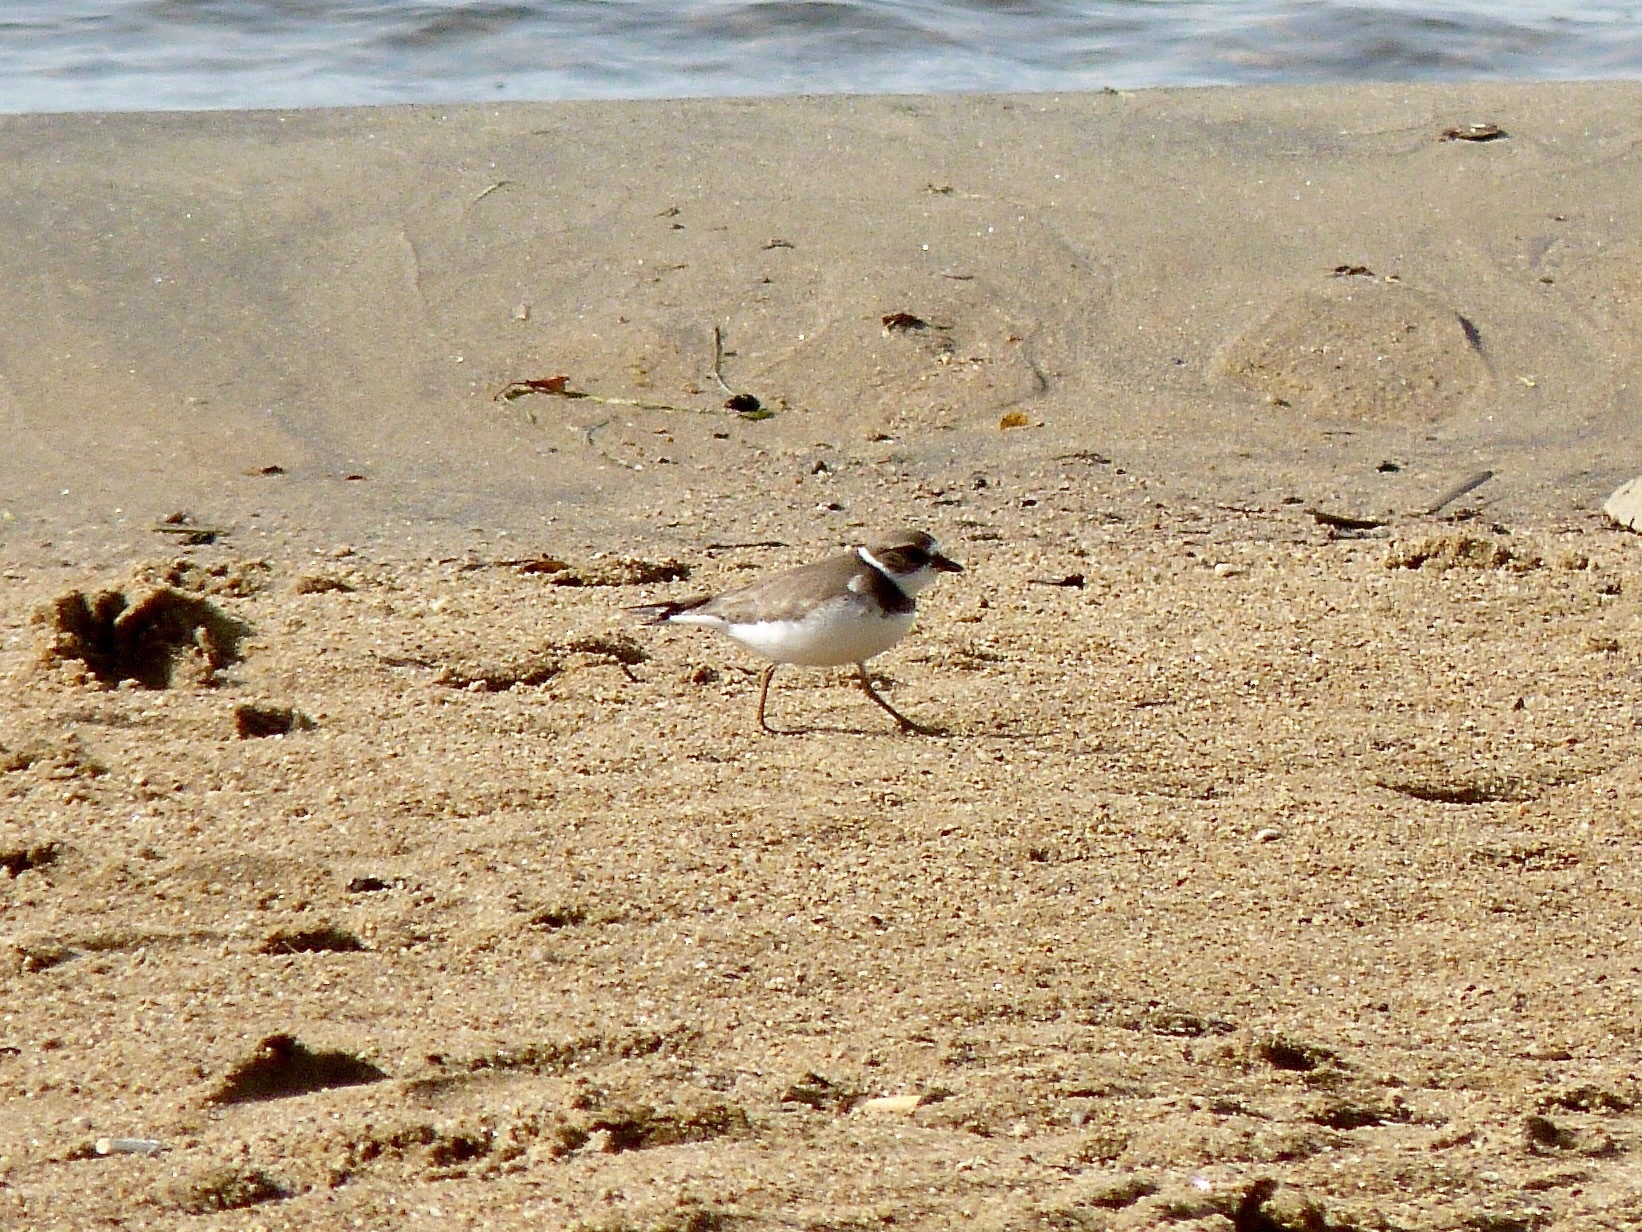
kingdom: Animalia
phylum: Chordata
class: Aves
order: Charadriiformes
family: Charadriidae
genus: Charadrius
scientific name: Charadrius semipalmatus
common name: Semipalmated plover
